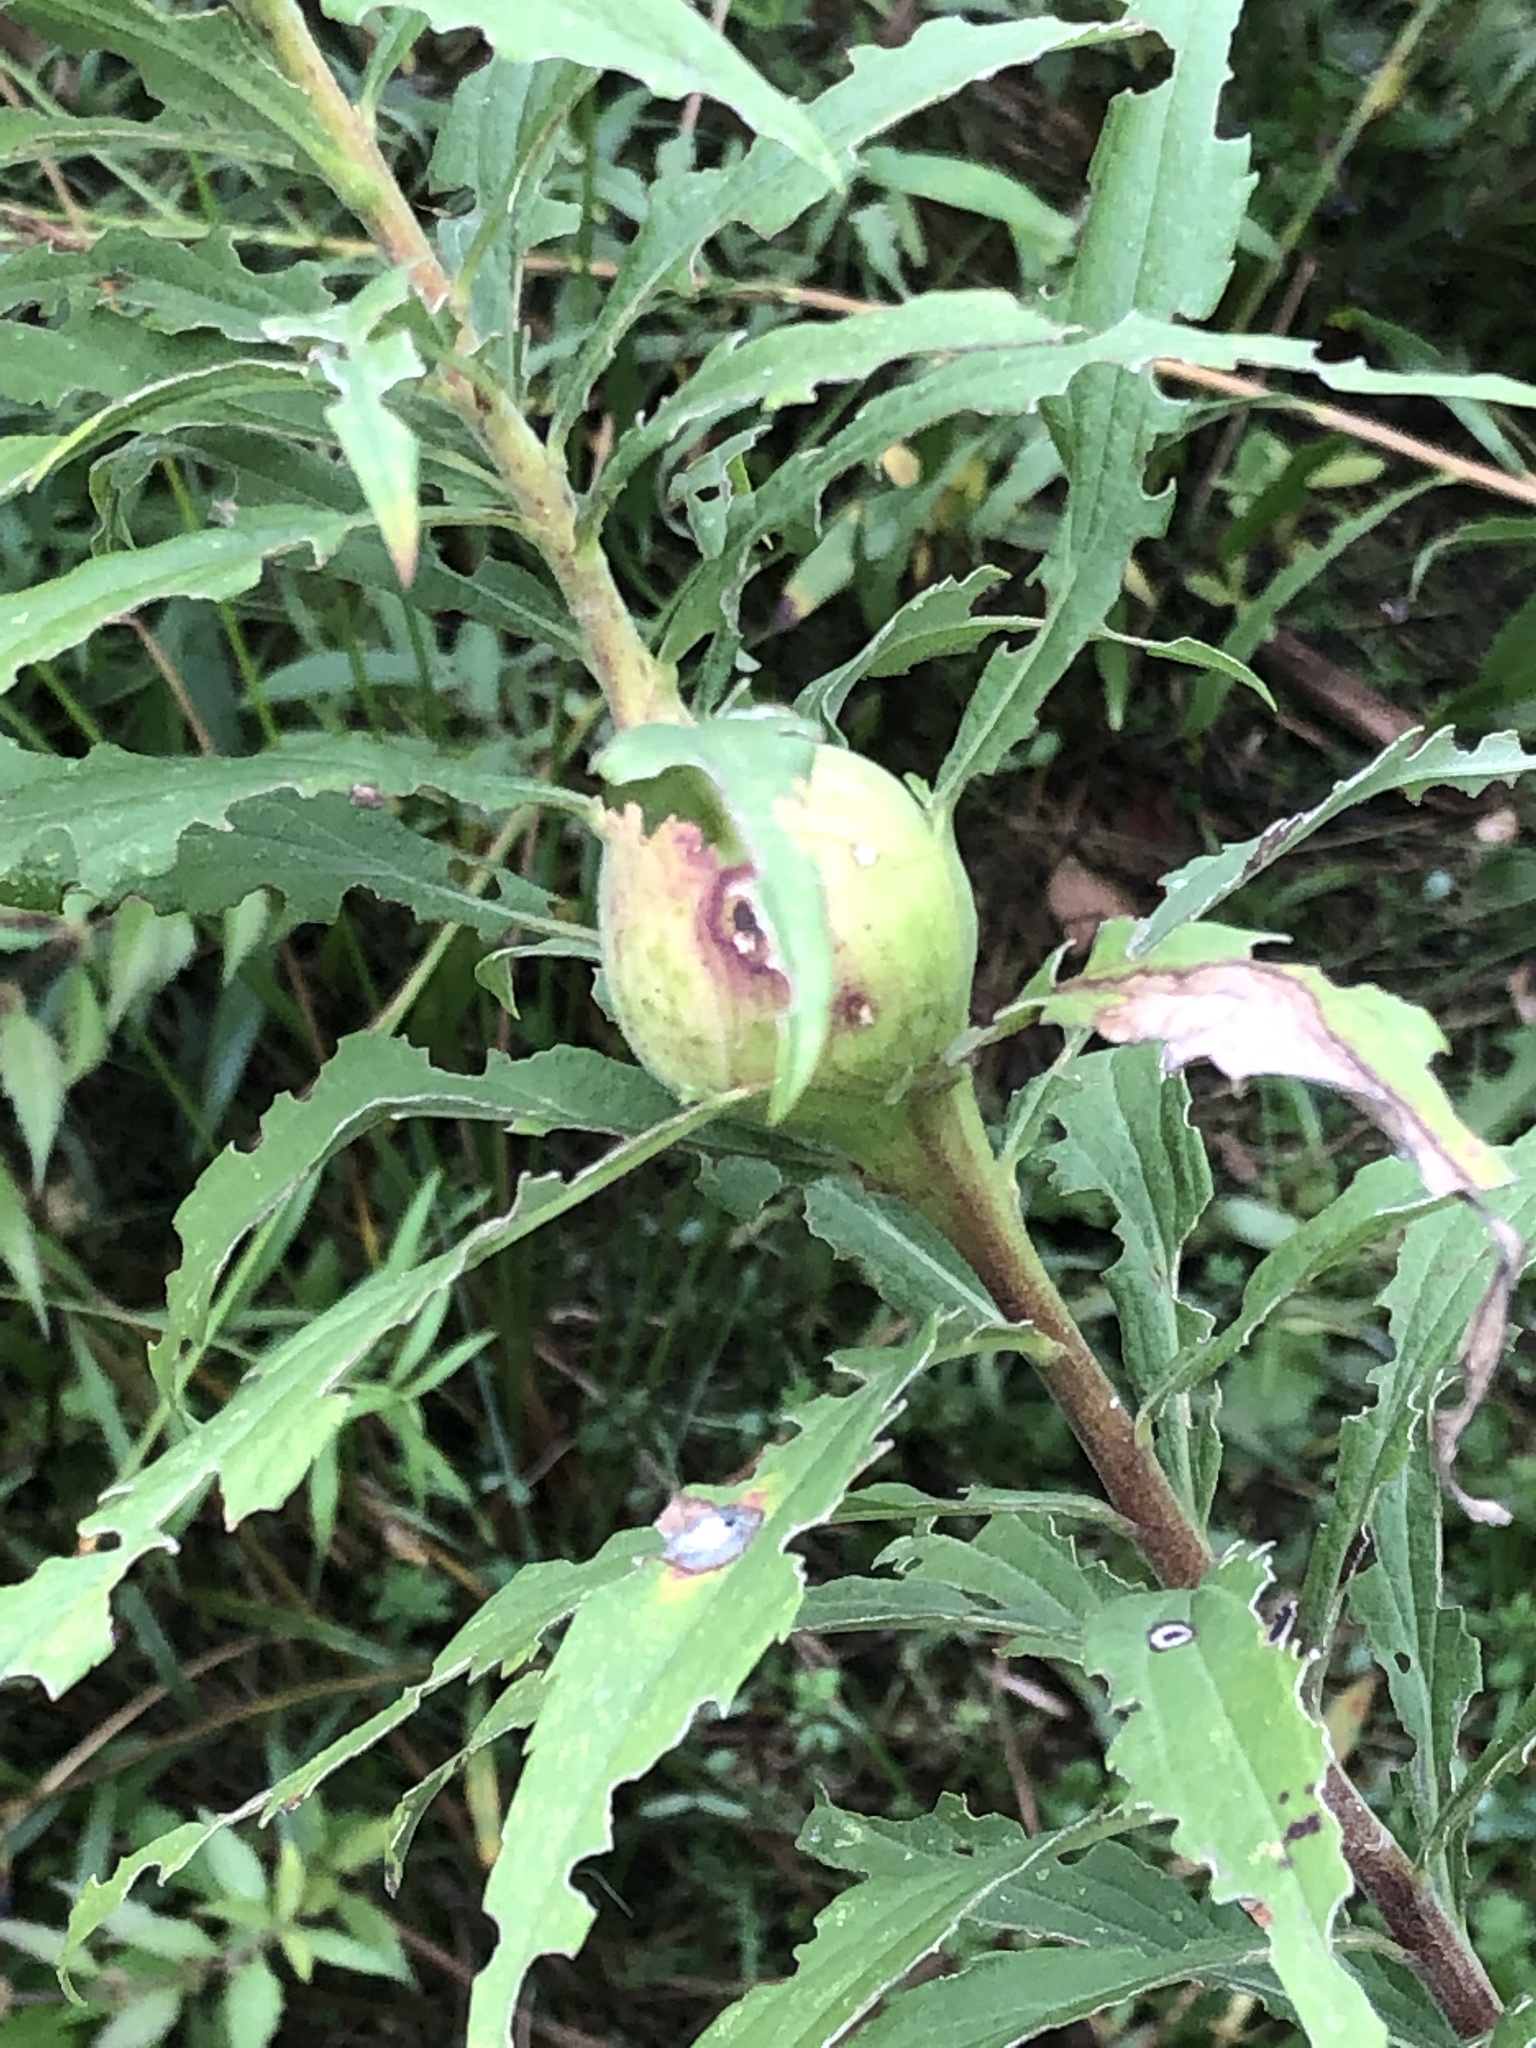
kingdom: Animalia
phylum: Arthropoda
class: Insecta
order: Diptera
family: Tephritidae
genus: Eurosta
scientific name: Eurosta solidaginis
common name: Goldenrod gall fly
